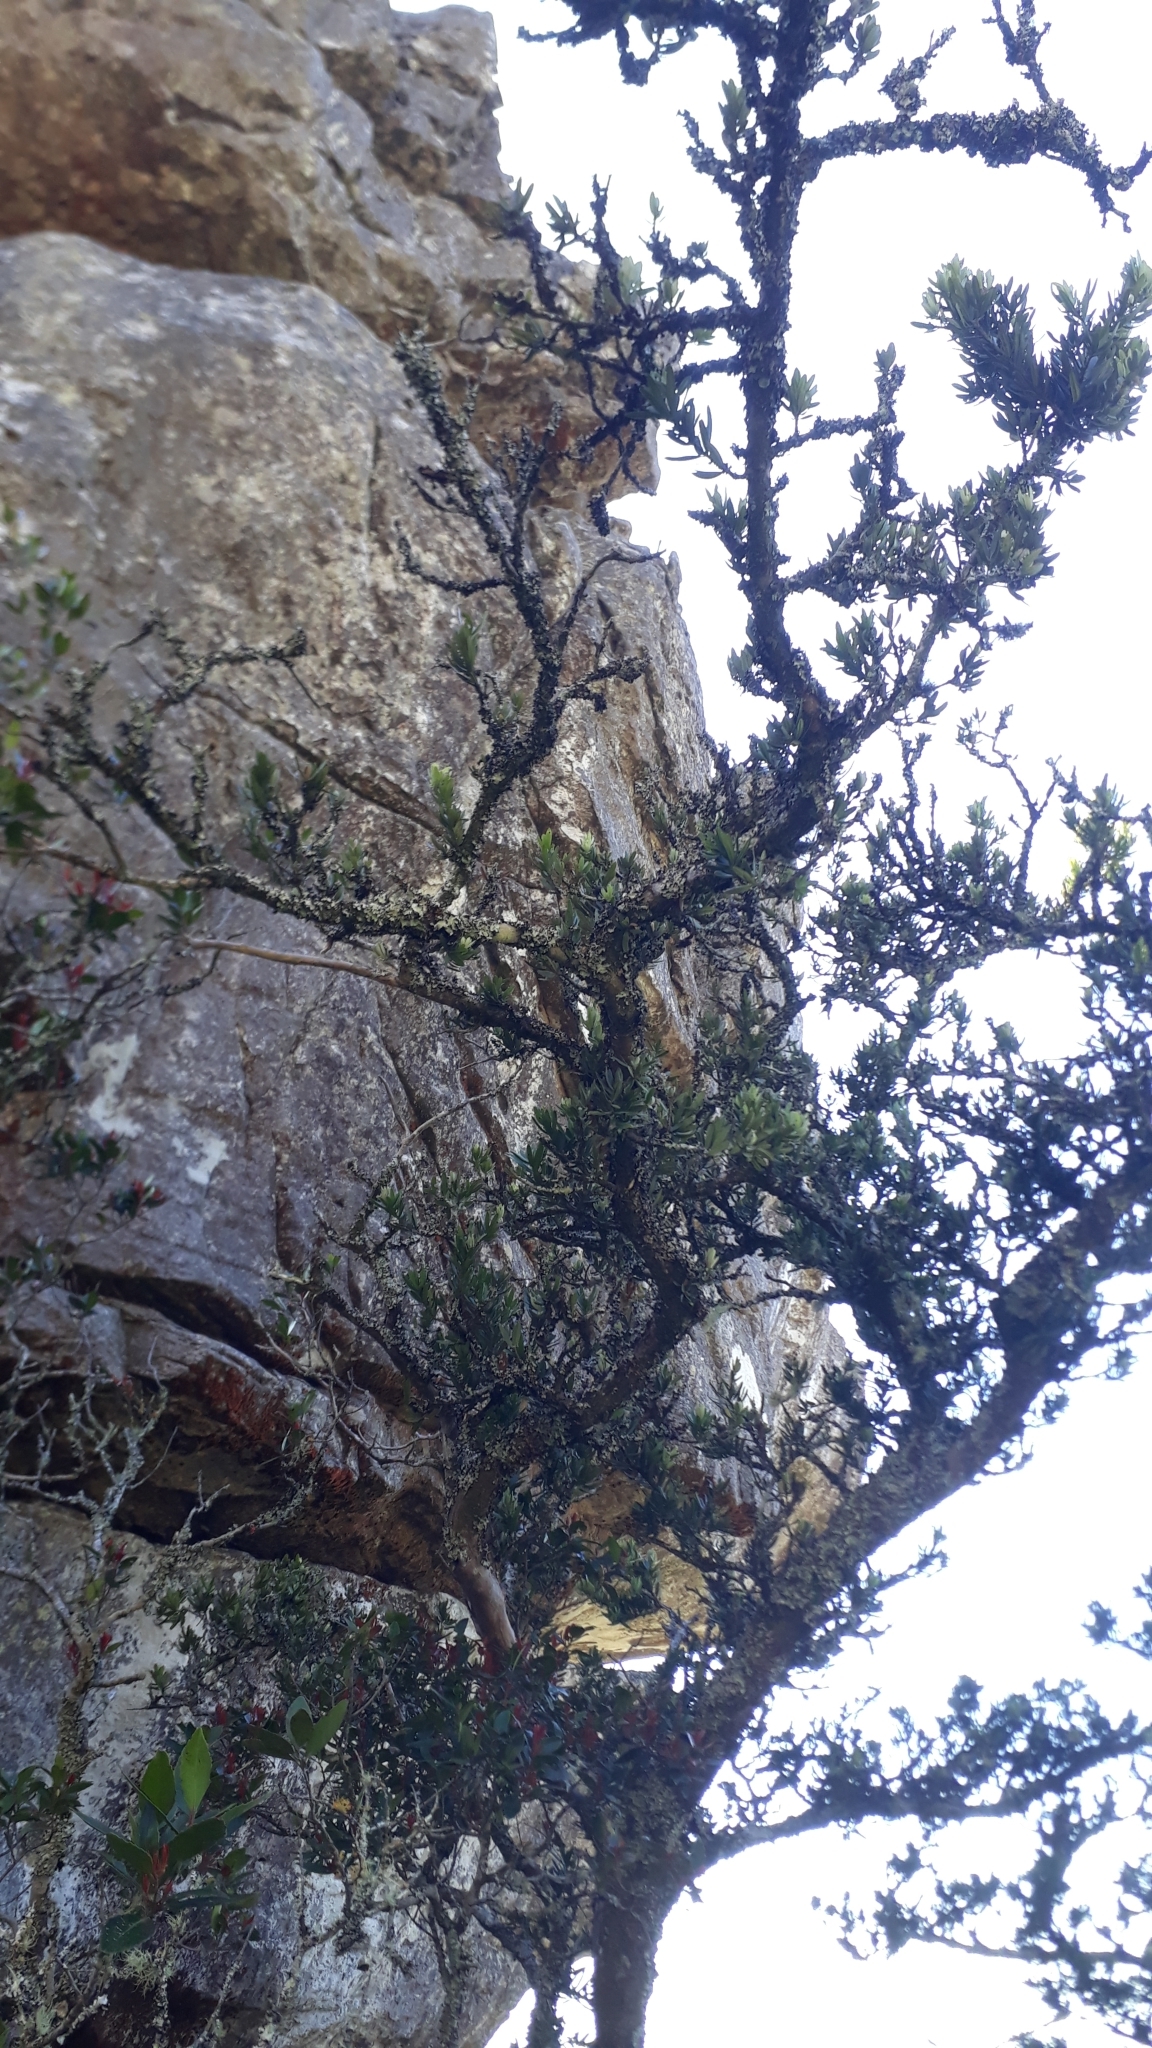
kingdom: Plantae
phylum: Tracheophyta
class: Magnoliopsida
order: Celastrales
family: Celastraceae
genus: Elaeodendron
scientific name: Elaeodendron schinoides
